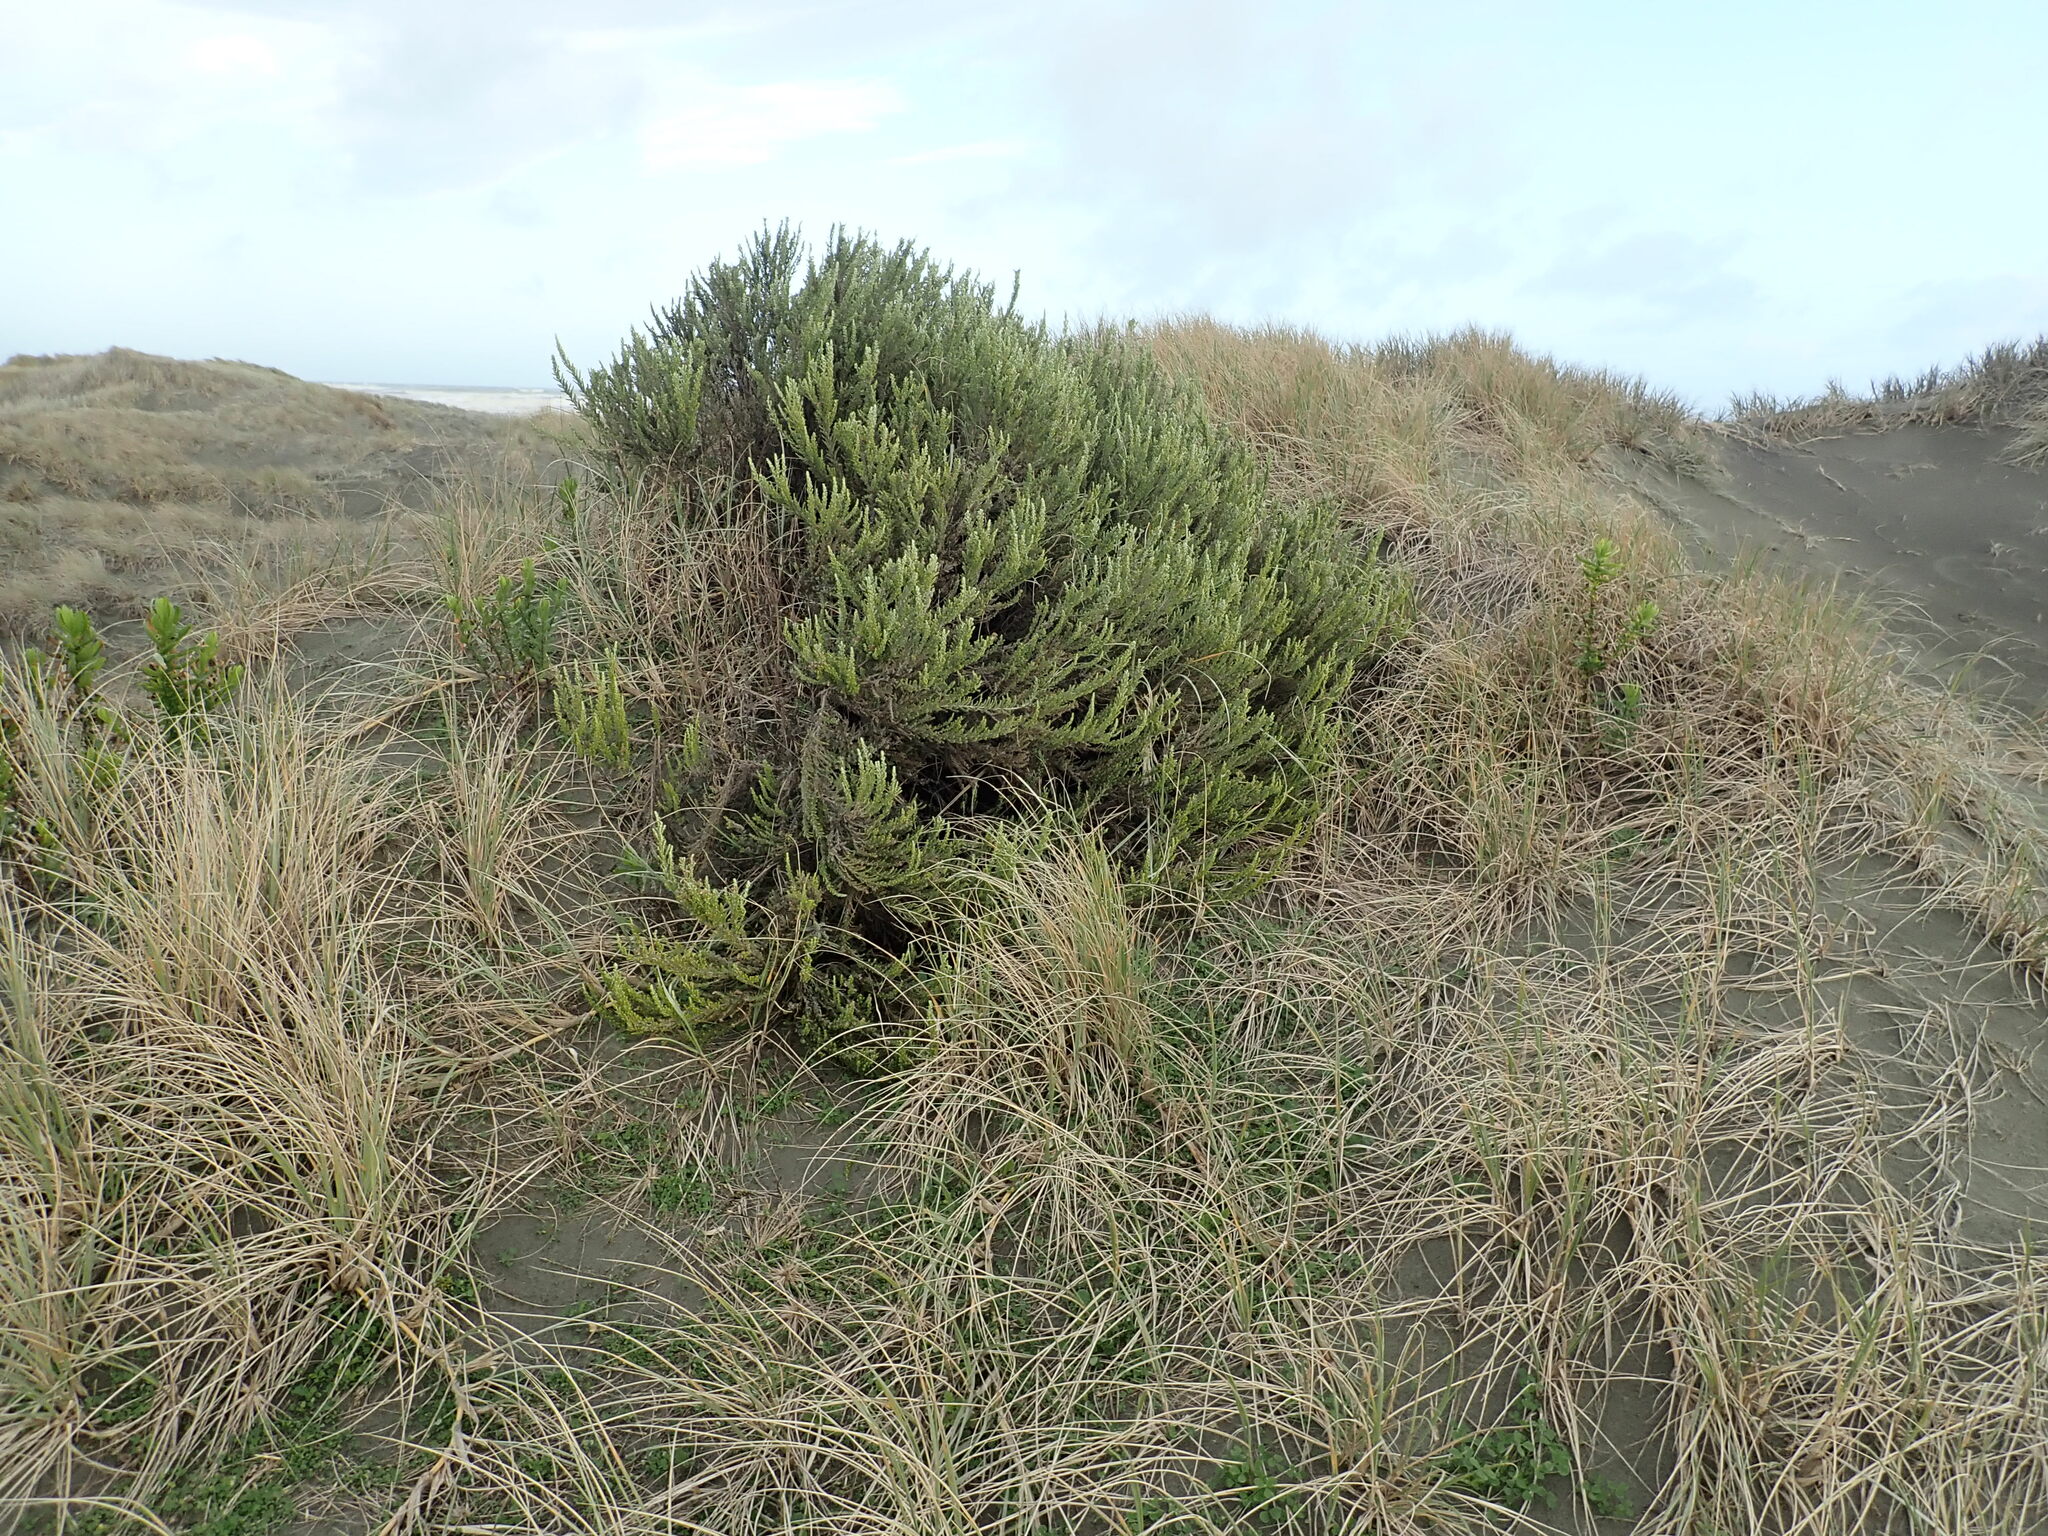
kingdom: Plantae
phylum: Tracheophyta
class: Magnoliopsida
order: Asterales
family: Asteraceae
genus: Ozothamnus
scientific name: Ozothamnus leptophyllus
